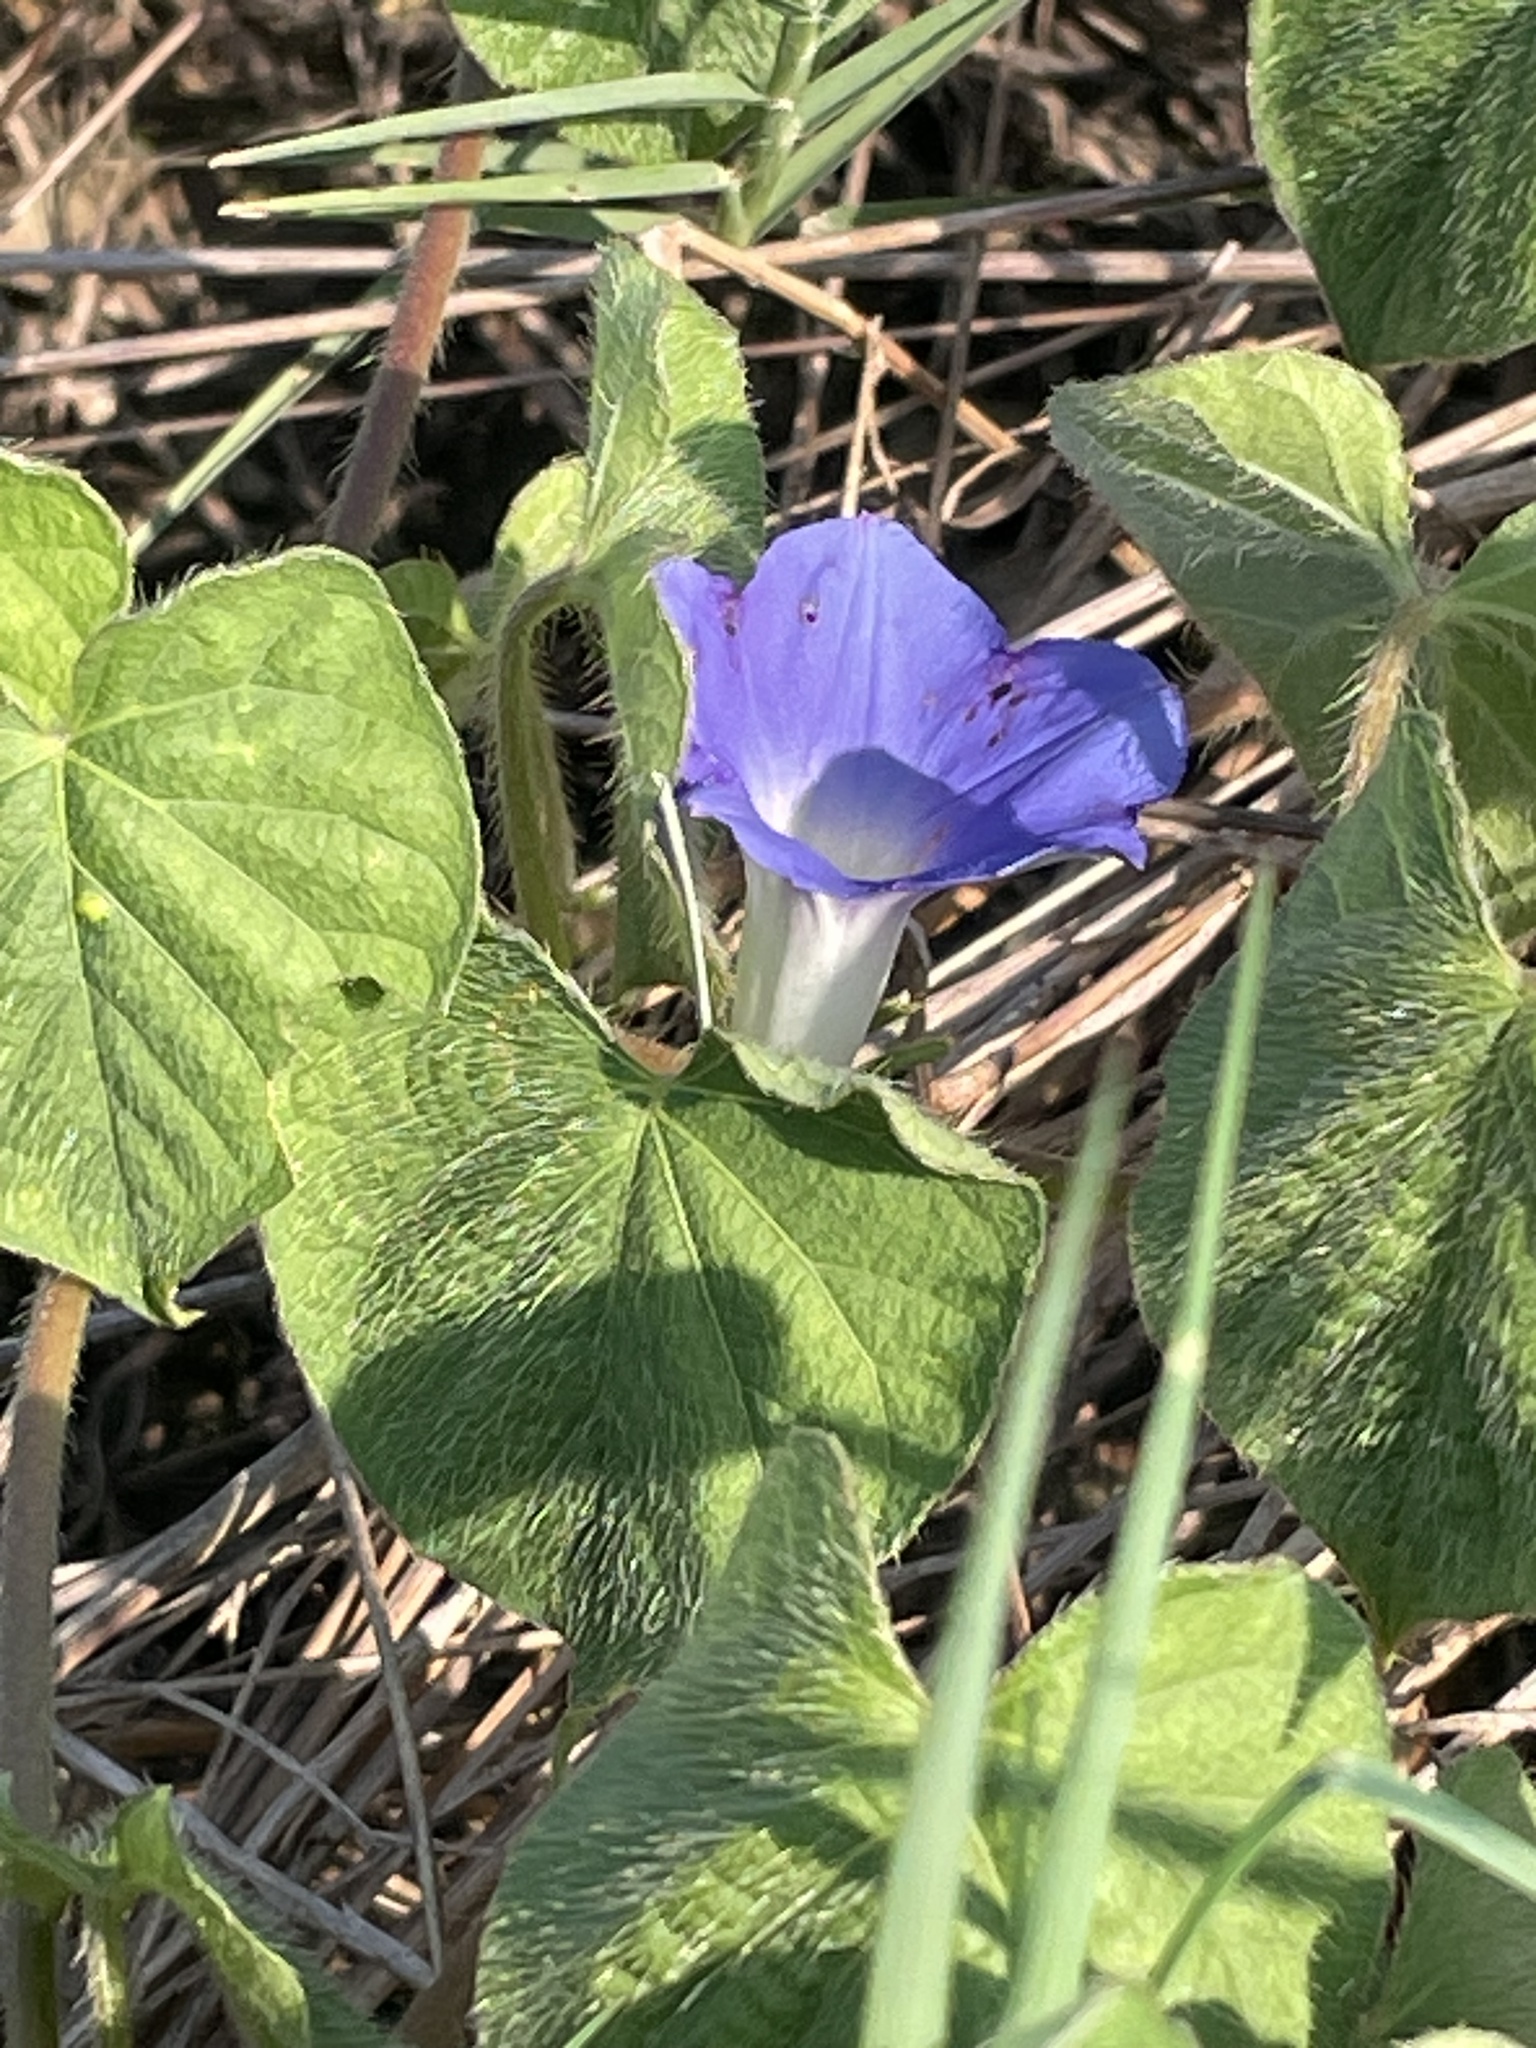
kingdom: Plantae
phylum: Tracheophyta
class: Magnoliopsida
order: Solanales
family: Convolvulaceae
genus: Ipomoea
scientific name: Ipomoea hederacea
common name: Ivy-leaved morning-glory
